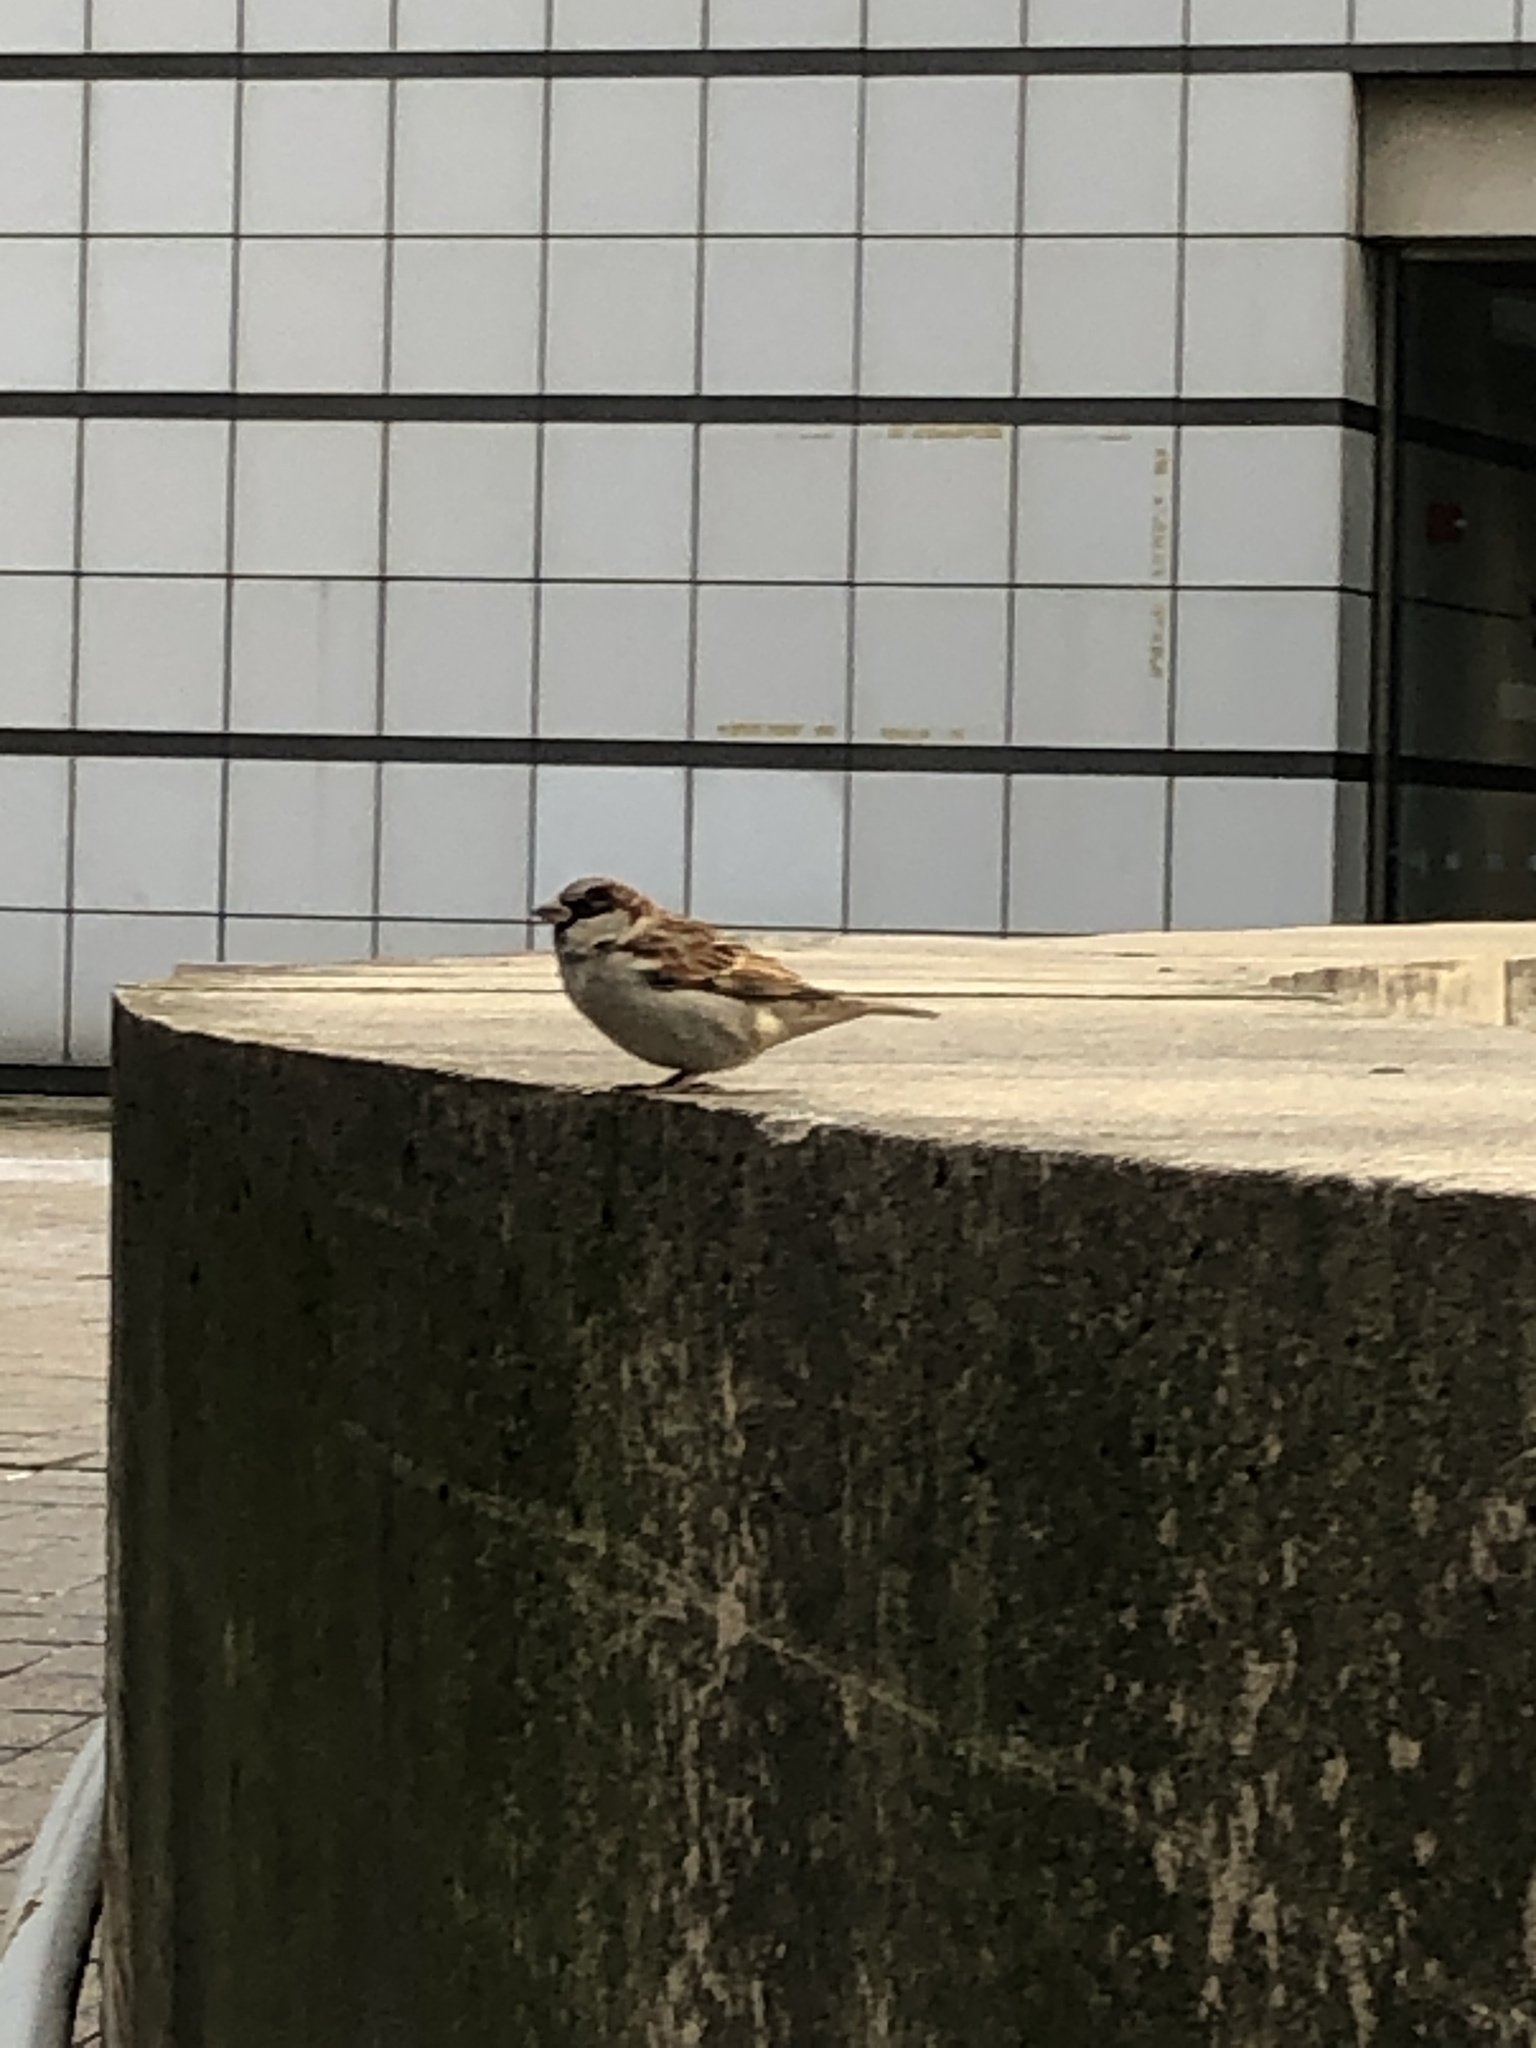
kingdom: Animalia
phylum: Chordata
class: Aves
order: Passeriformes
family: Passeridae
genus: Passer
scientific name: Passer domesticus
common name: House sparrow
